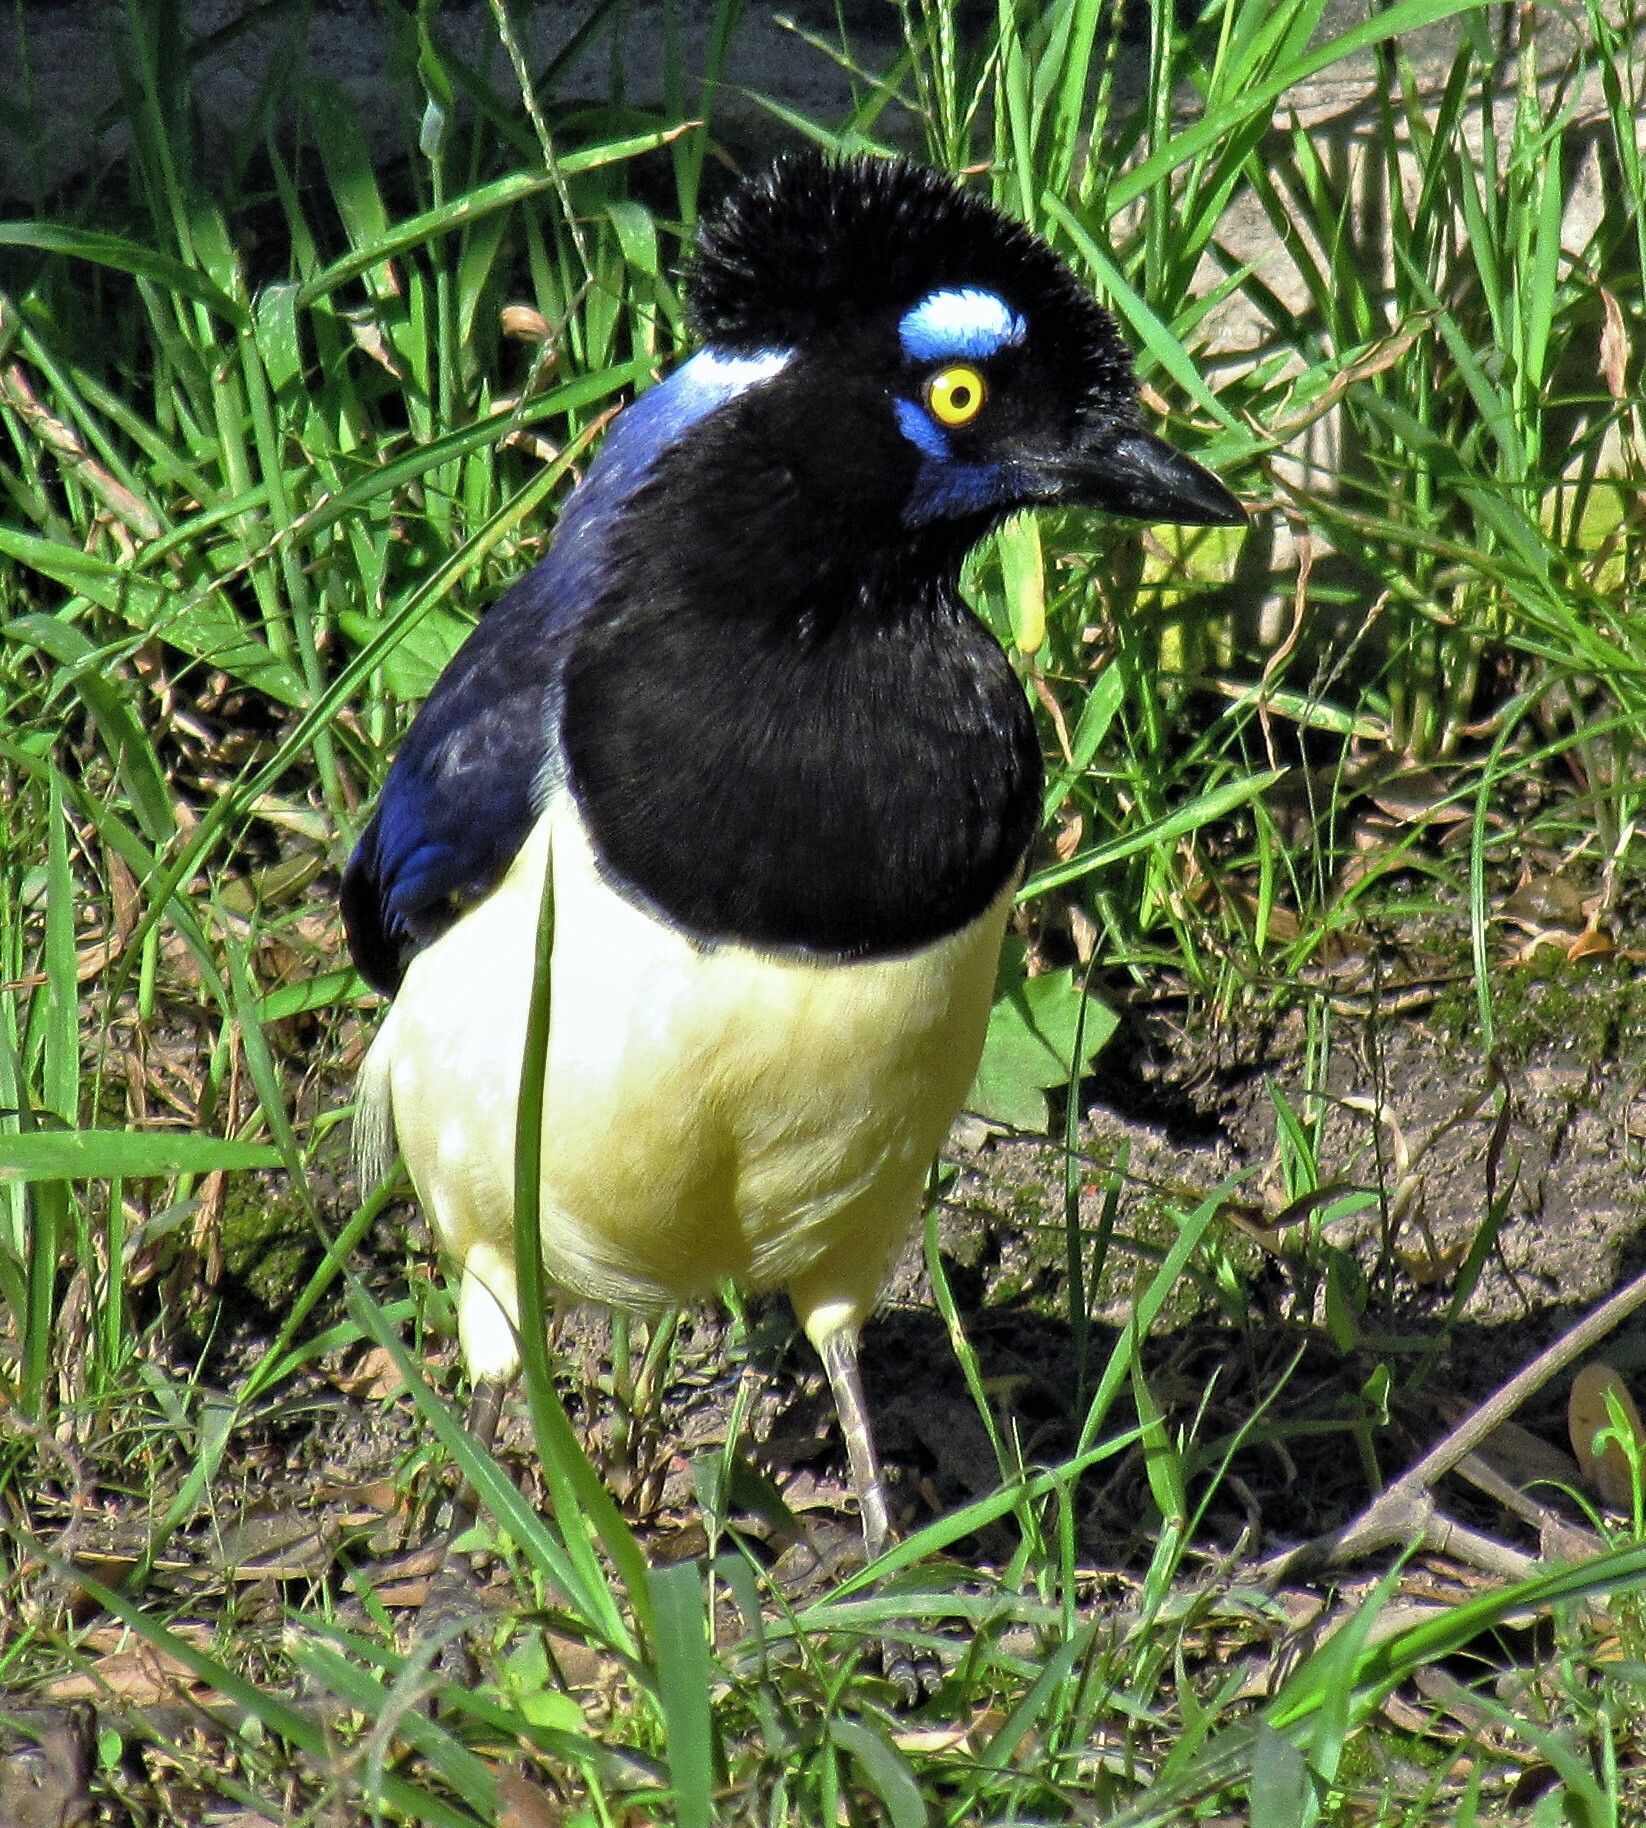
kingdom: Animalia
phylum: Chordata
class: Aves
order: Passeriformes
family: Corvidae
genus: Cyanocorax
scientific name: Cyanocorax chrysops
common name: Plush-crested jay
